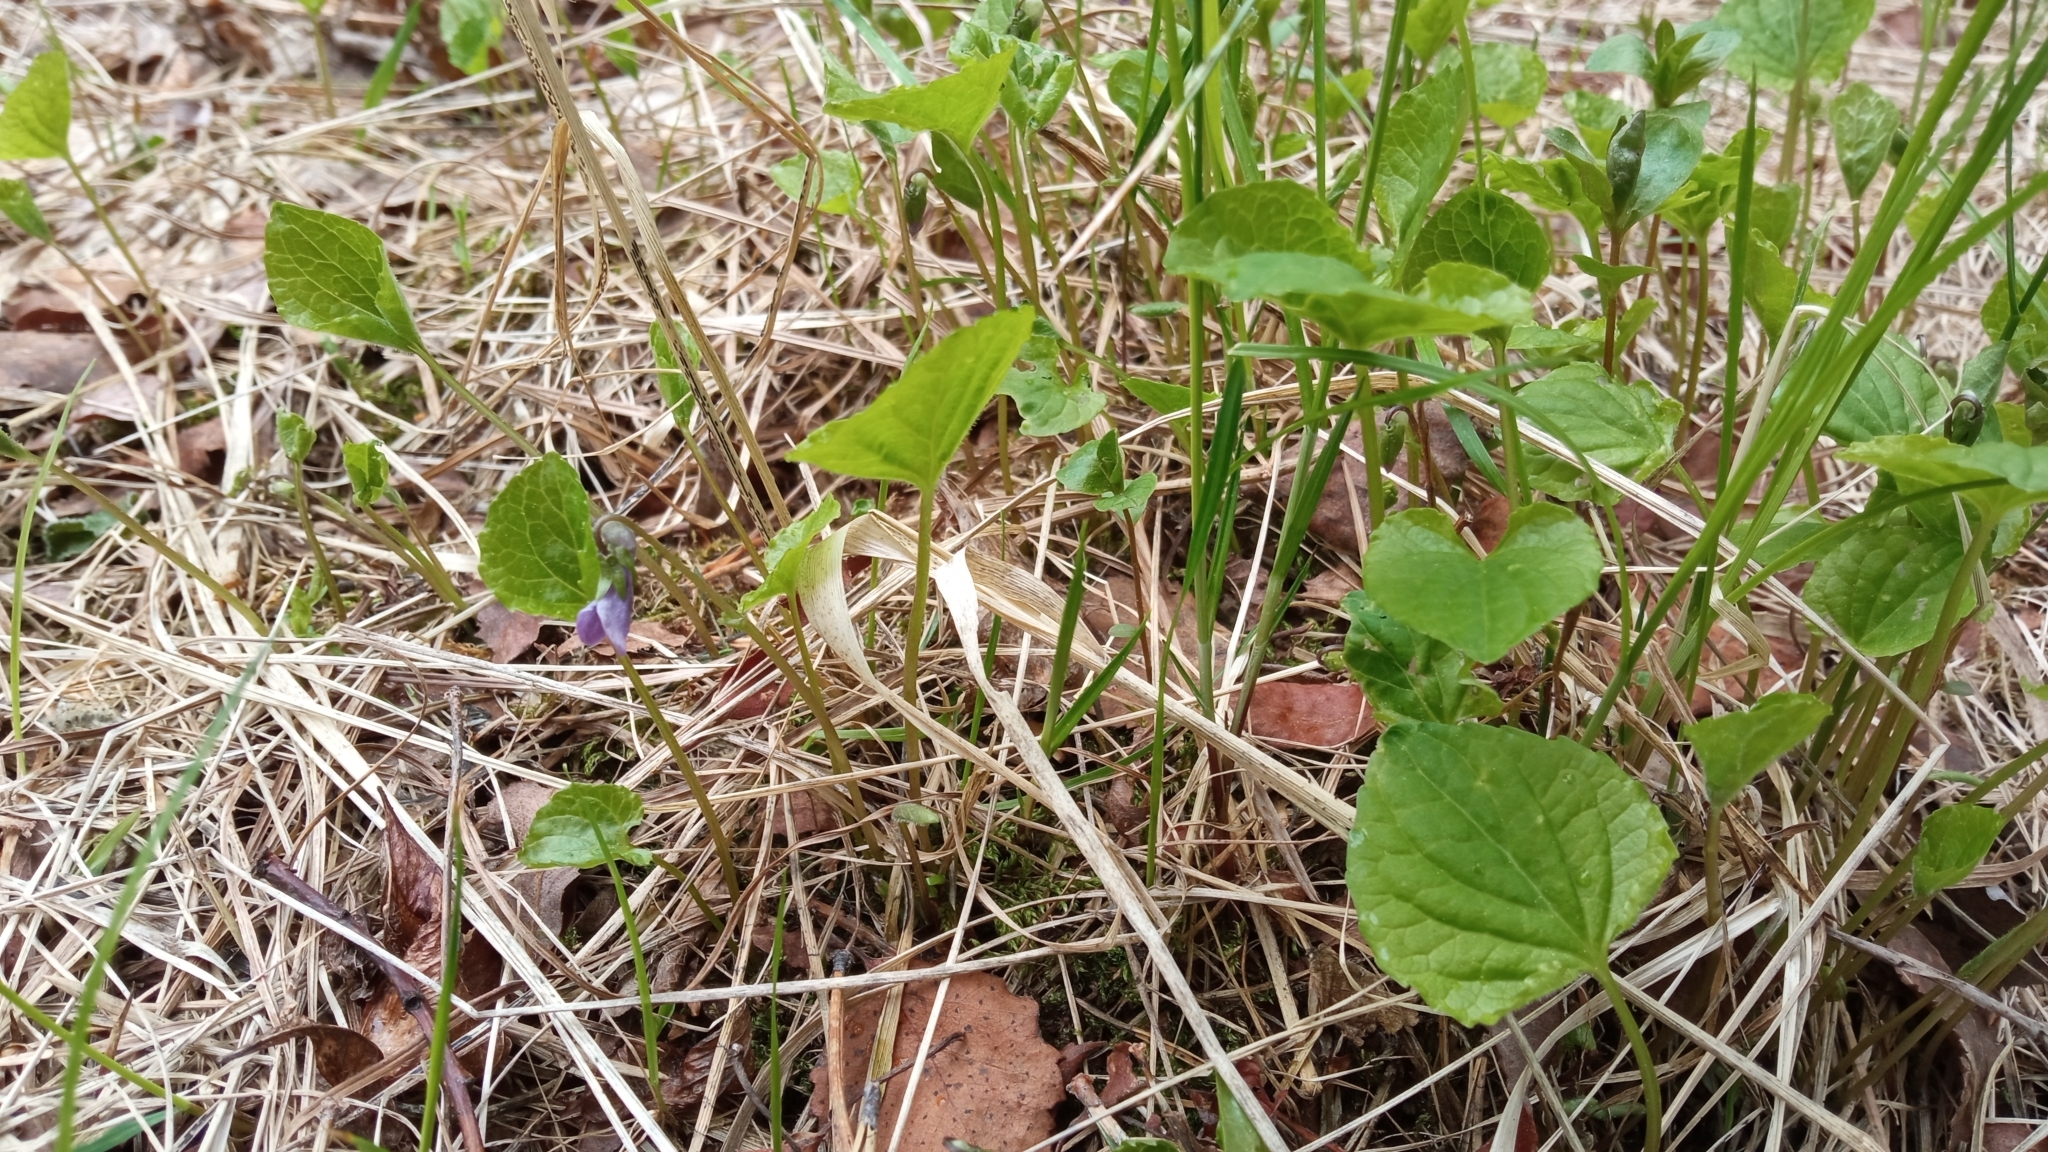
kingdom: Plantae
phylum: Tracheophyta
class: Magnoliopsida
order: Malpighiales
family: Violaceae
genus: Viola
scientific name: Viola epipsila
